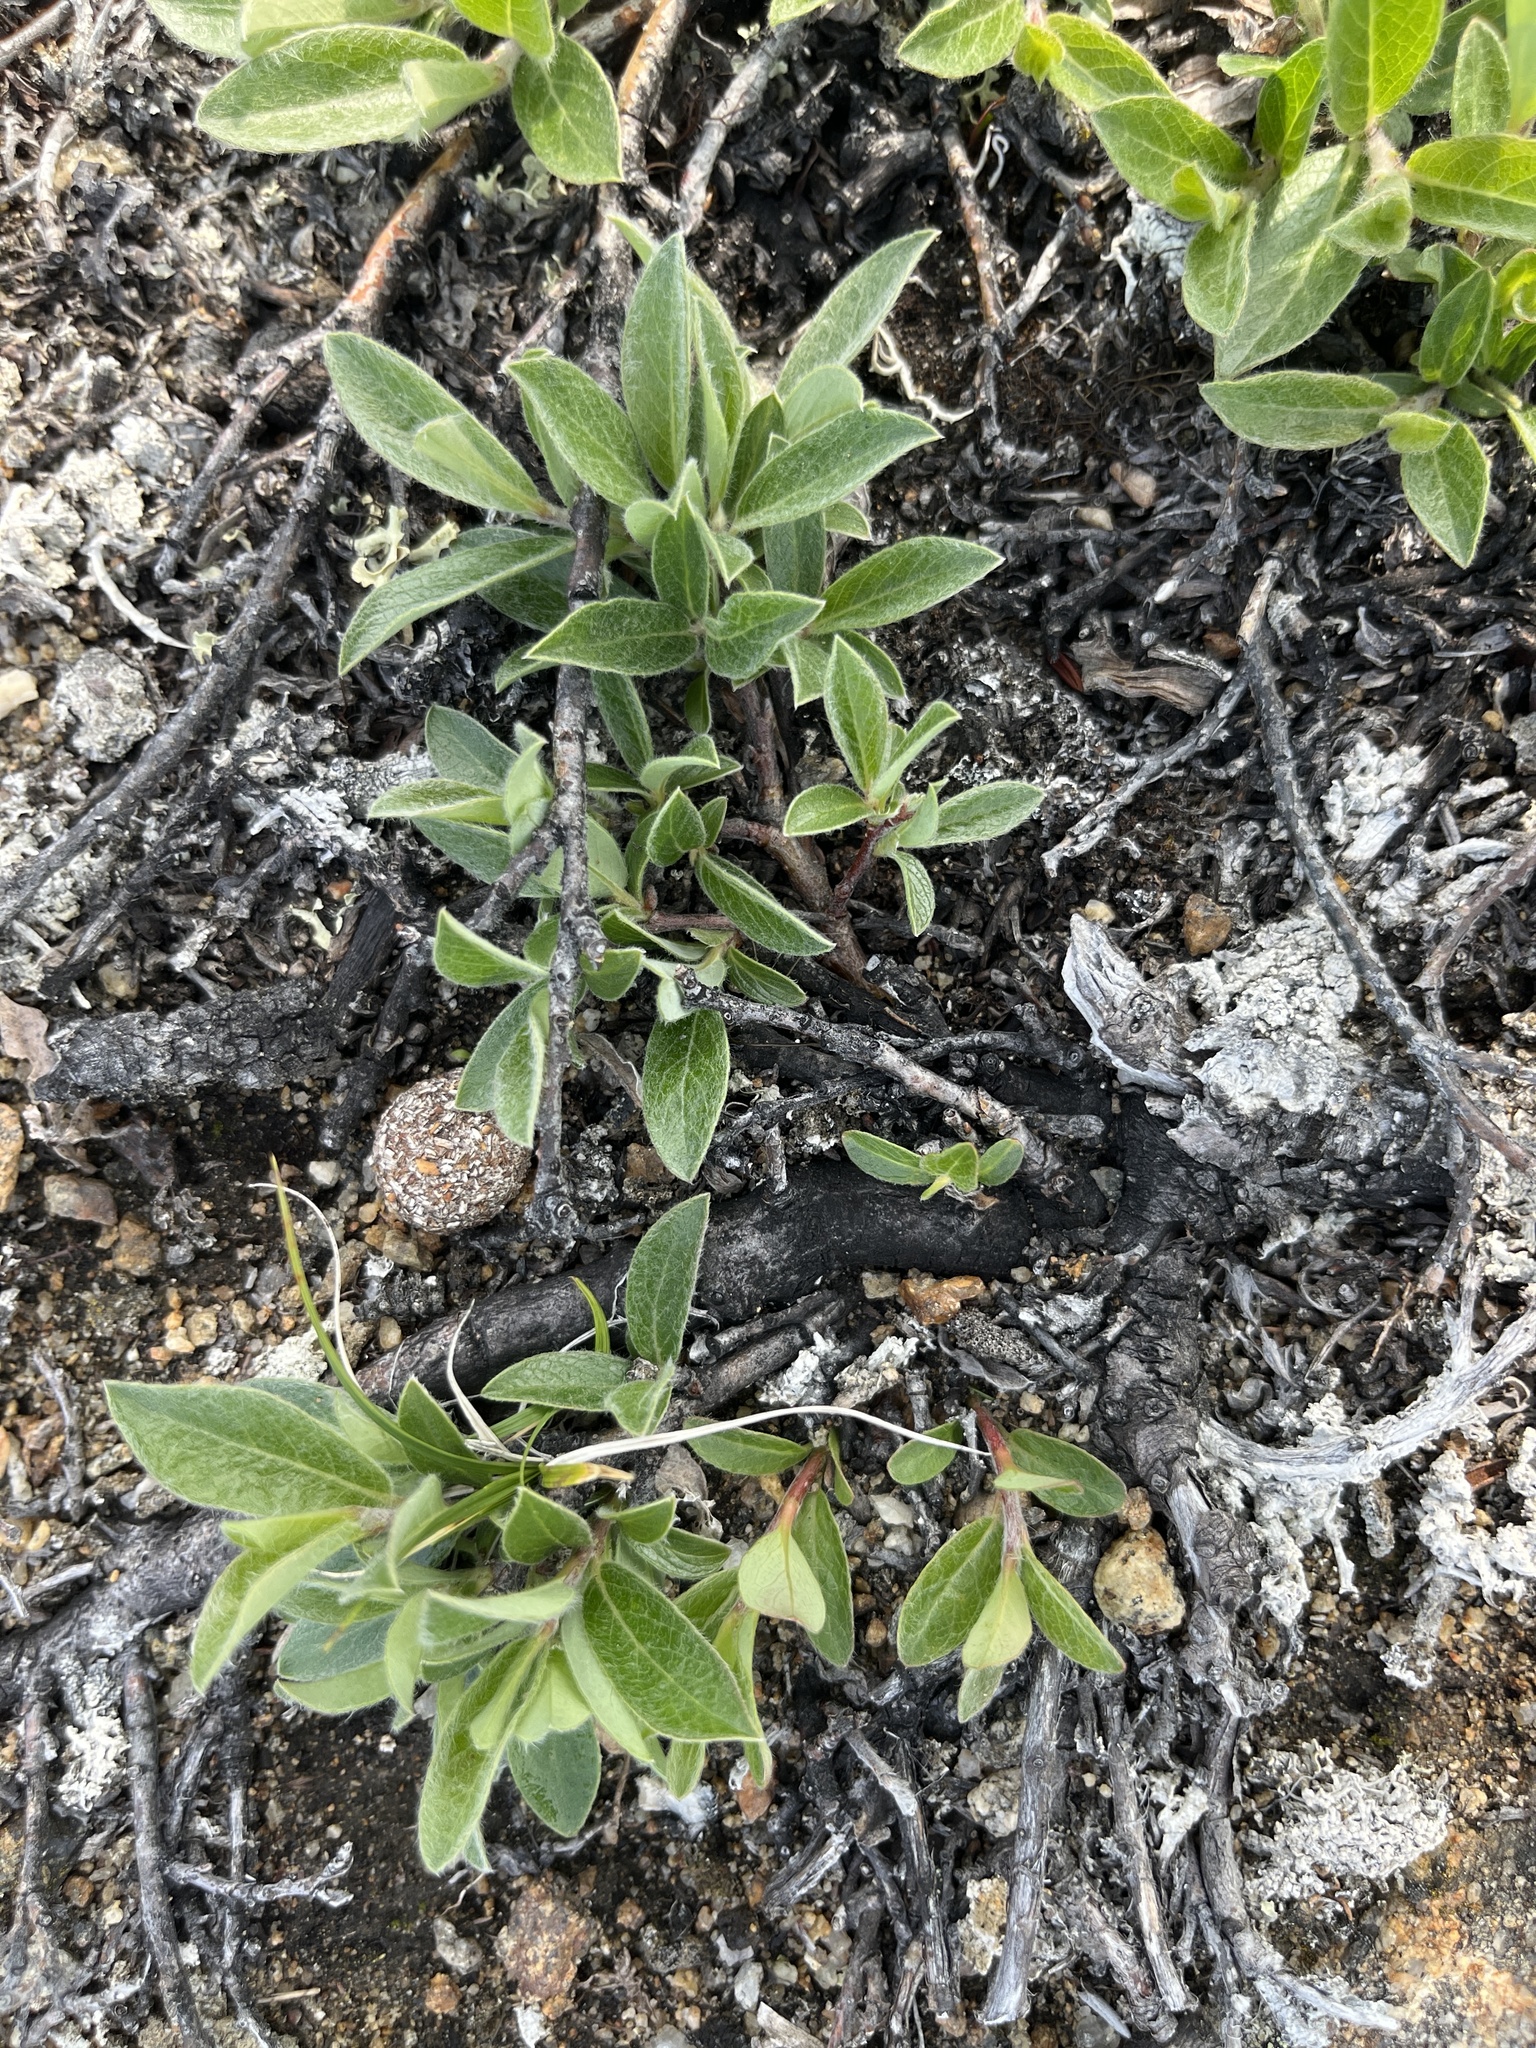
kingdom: Plantae
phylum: Tracheophyta
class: Magnoliopsida
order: Malpighiales
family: Salicaceae
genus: Salix
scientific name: Salix glauca
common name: Glaucous willow
